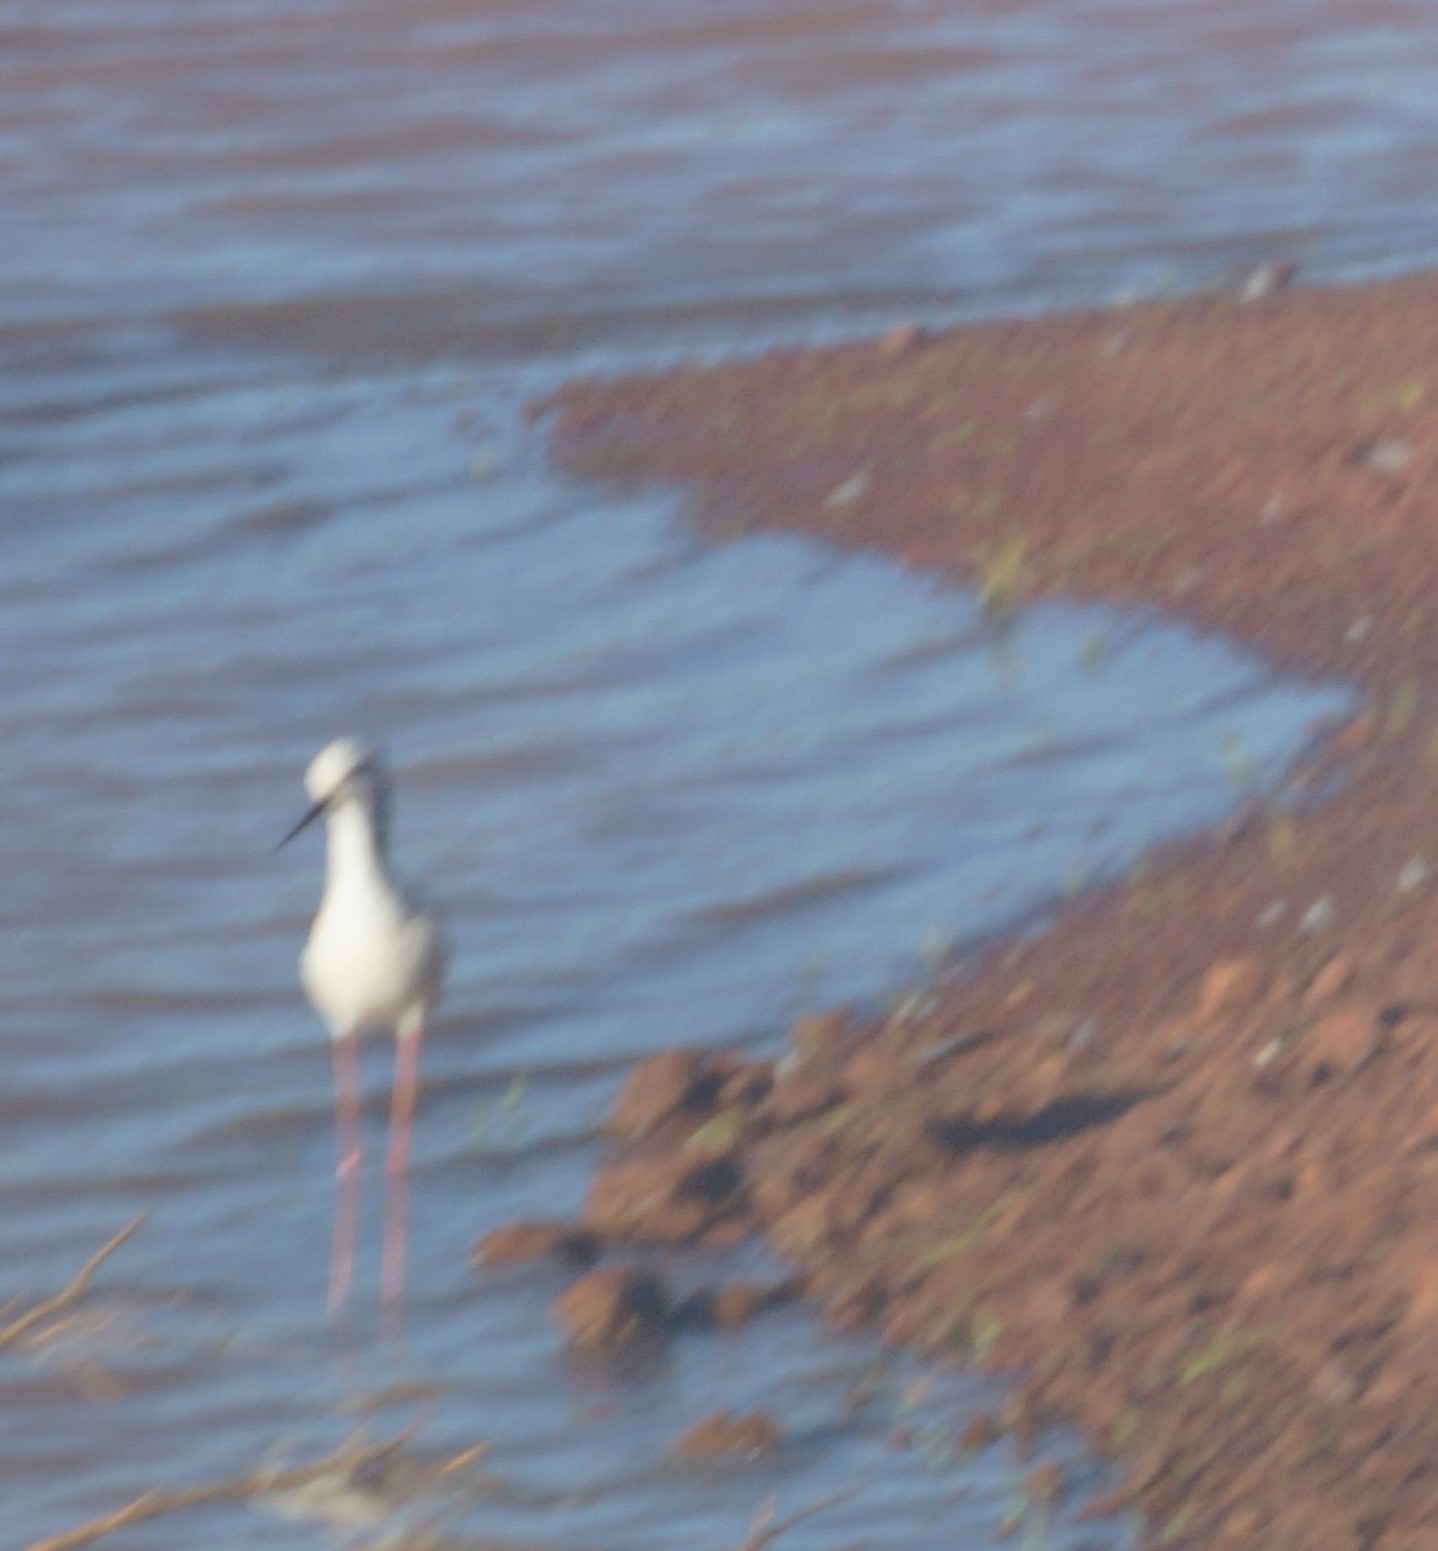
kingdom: Animalia
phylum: Chordata
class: Aves
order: Charadriiformes
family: Recurvirostridae
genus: Himantopus
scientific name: Himantopus leucocephalus
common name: White-headed stilt
